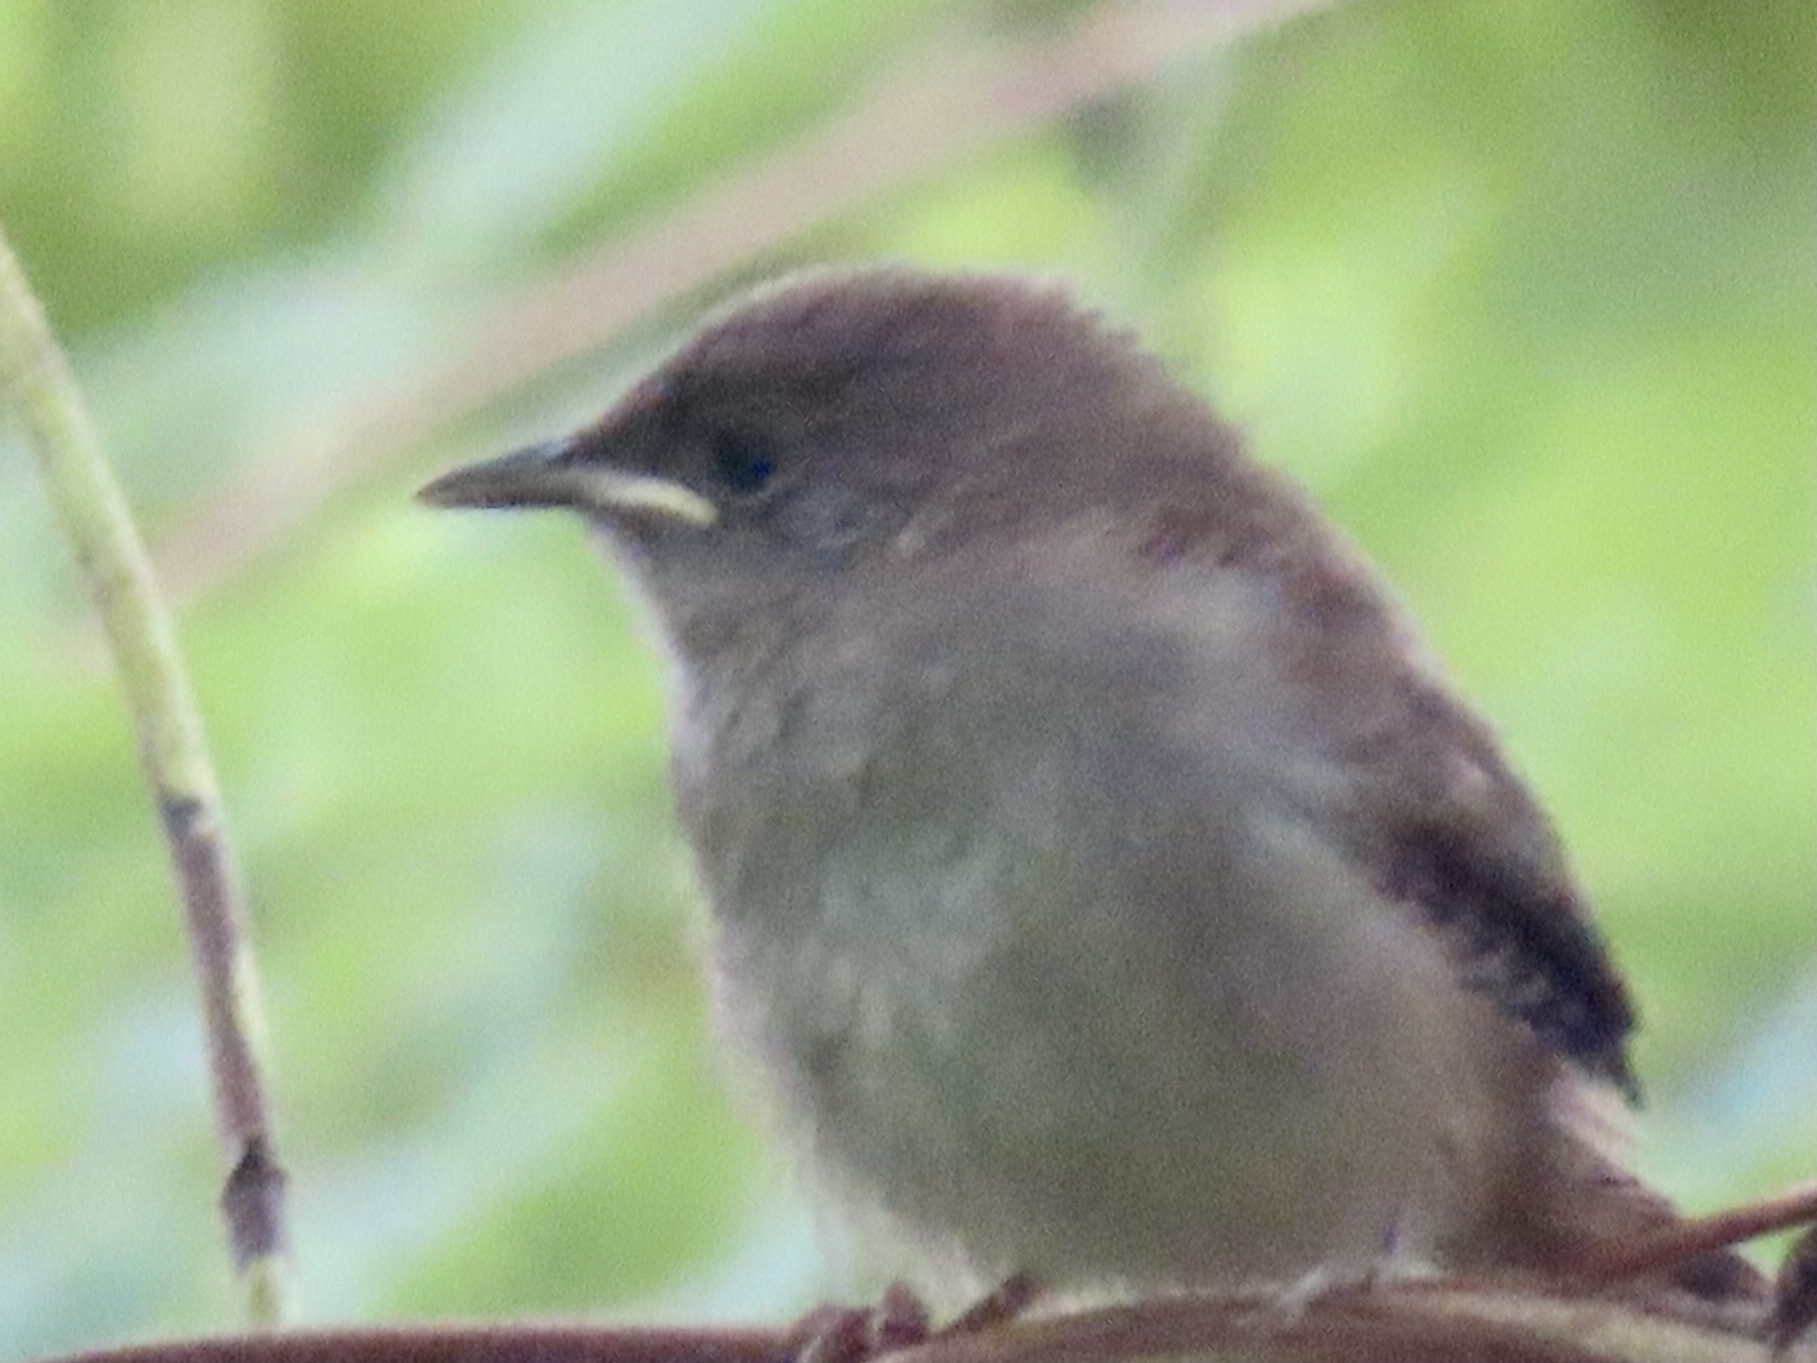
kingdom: Animalia
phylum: Chordata
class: Aves
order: Passeriformes
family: Troglodytidae
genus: Troglodytes
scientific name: Troglodytes aedon
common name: House wren
